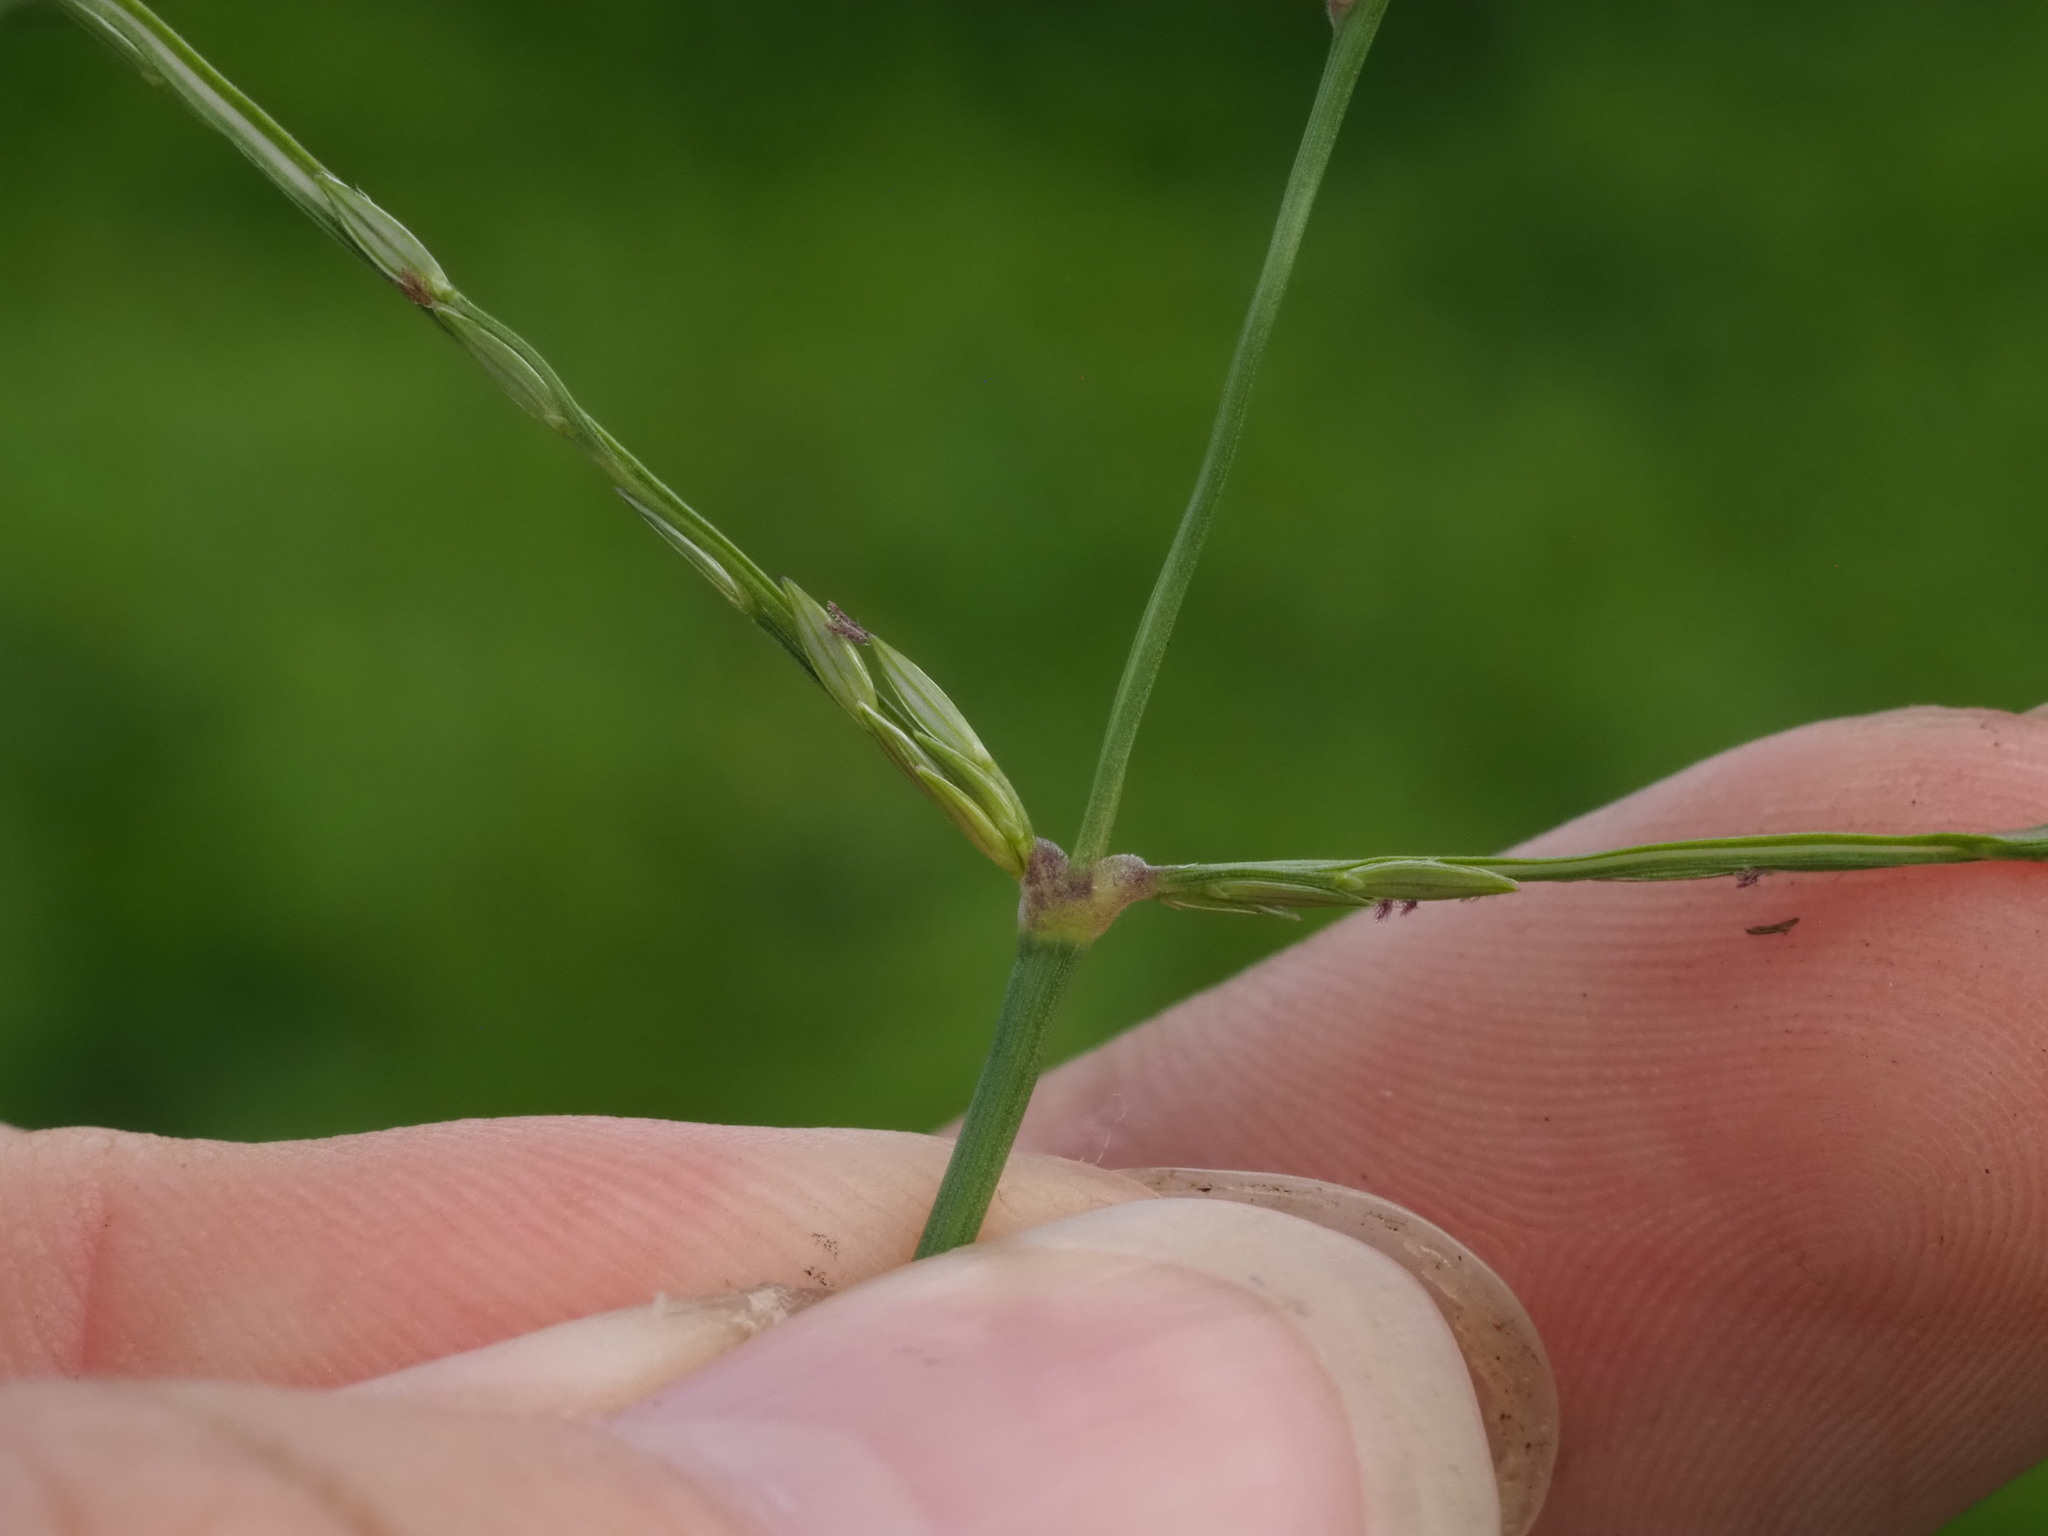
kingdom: Plantae
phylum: Tracheophyta
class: Liliopsida
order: Poales
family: Poaceae
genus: Digitaria
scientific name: Digitaria ciliaris
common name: Tropical finger-grass
